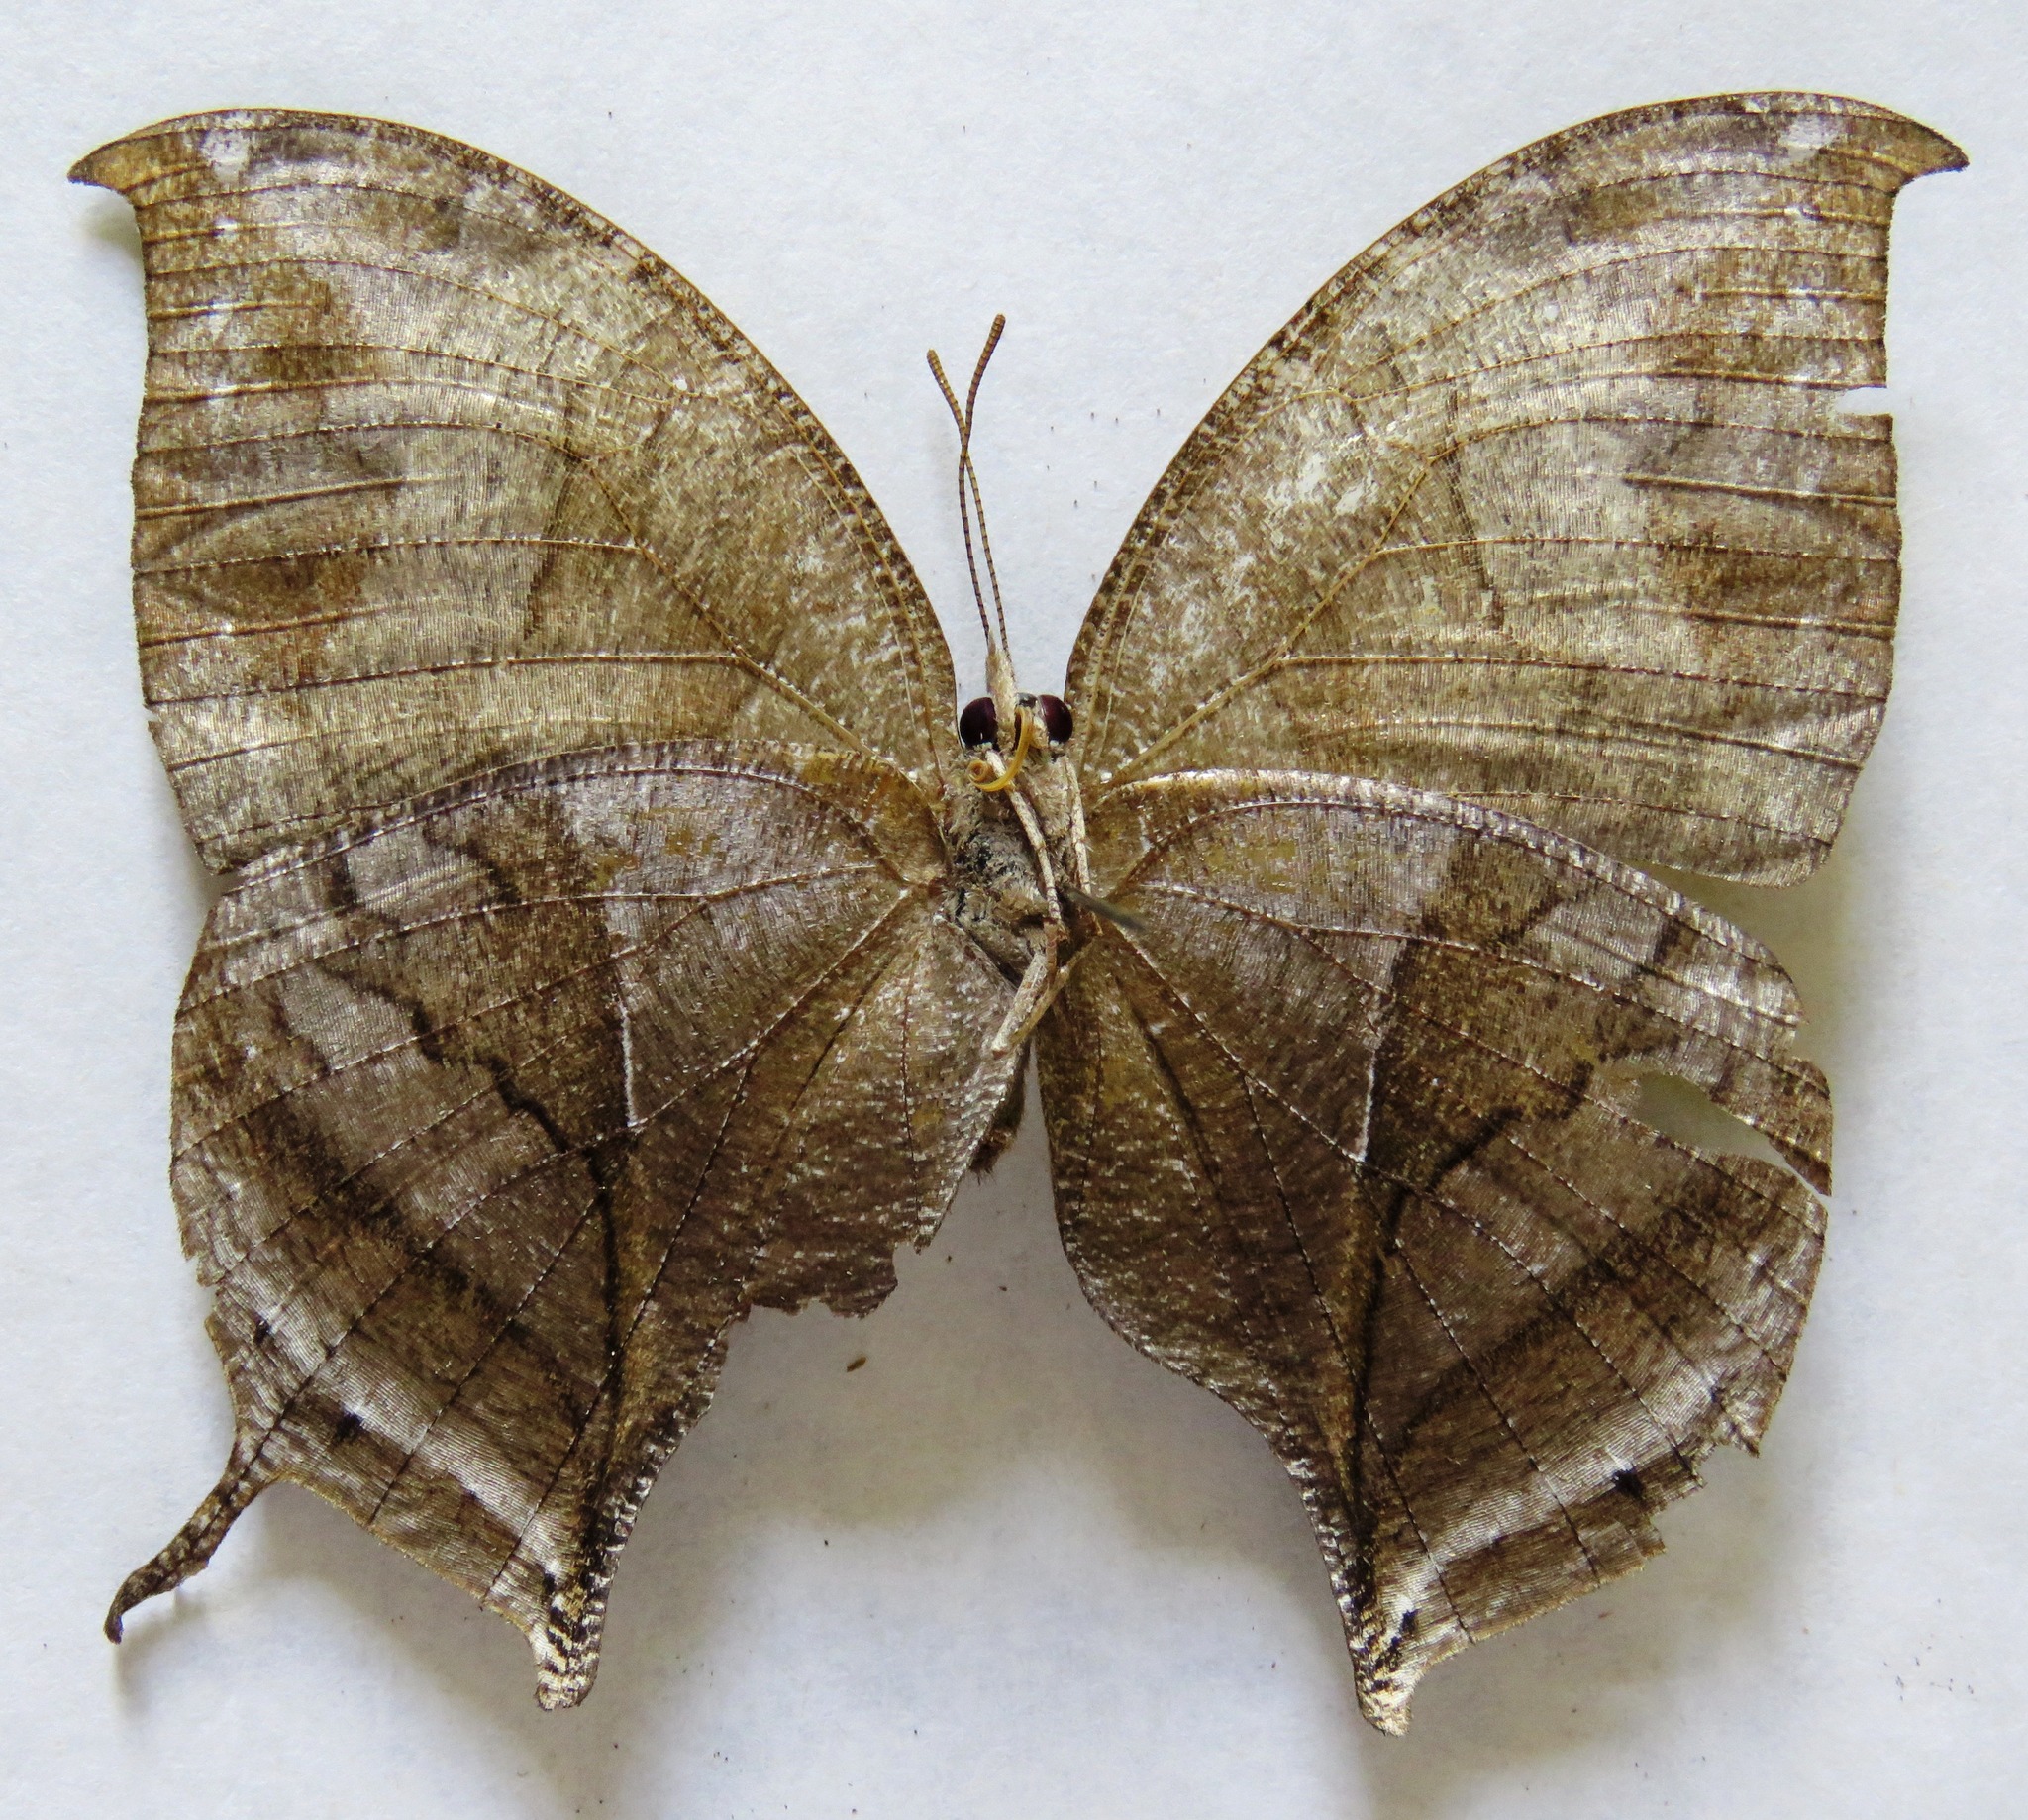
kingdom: Animalia
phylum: Arthropoda
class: Insecta
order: Lepidoptera
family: Nymphalidae
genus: Consul
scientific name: Consul electra
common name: Pearly leafwing
